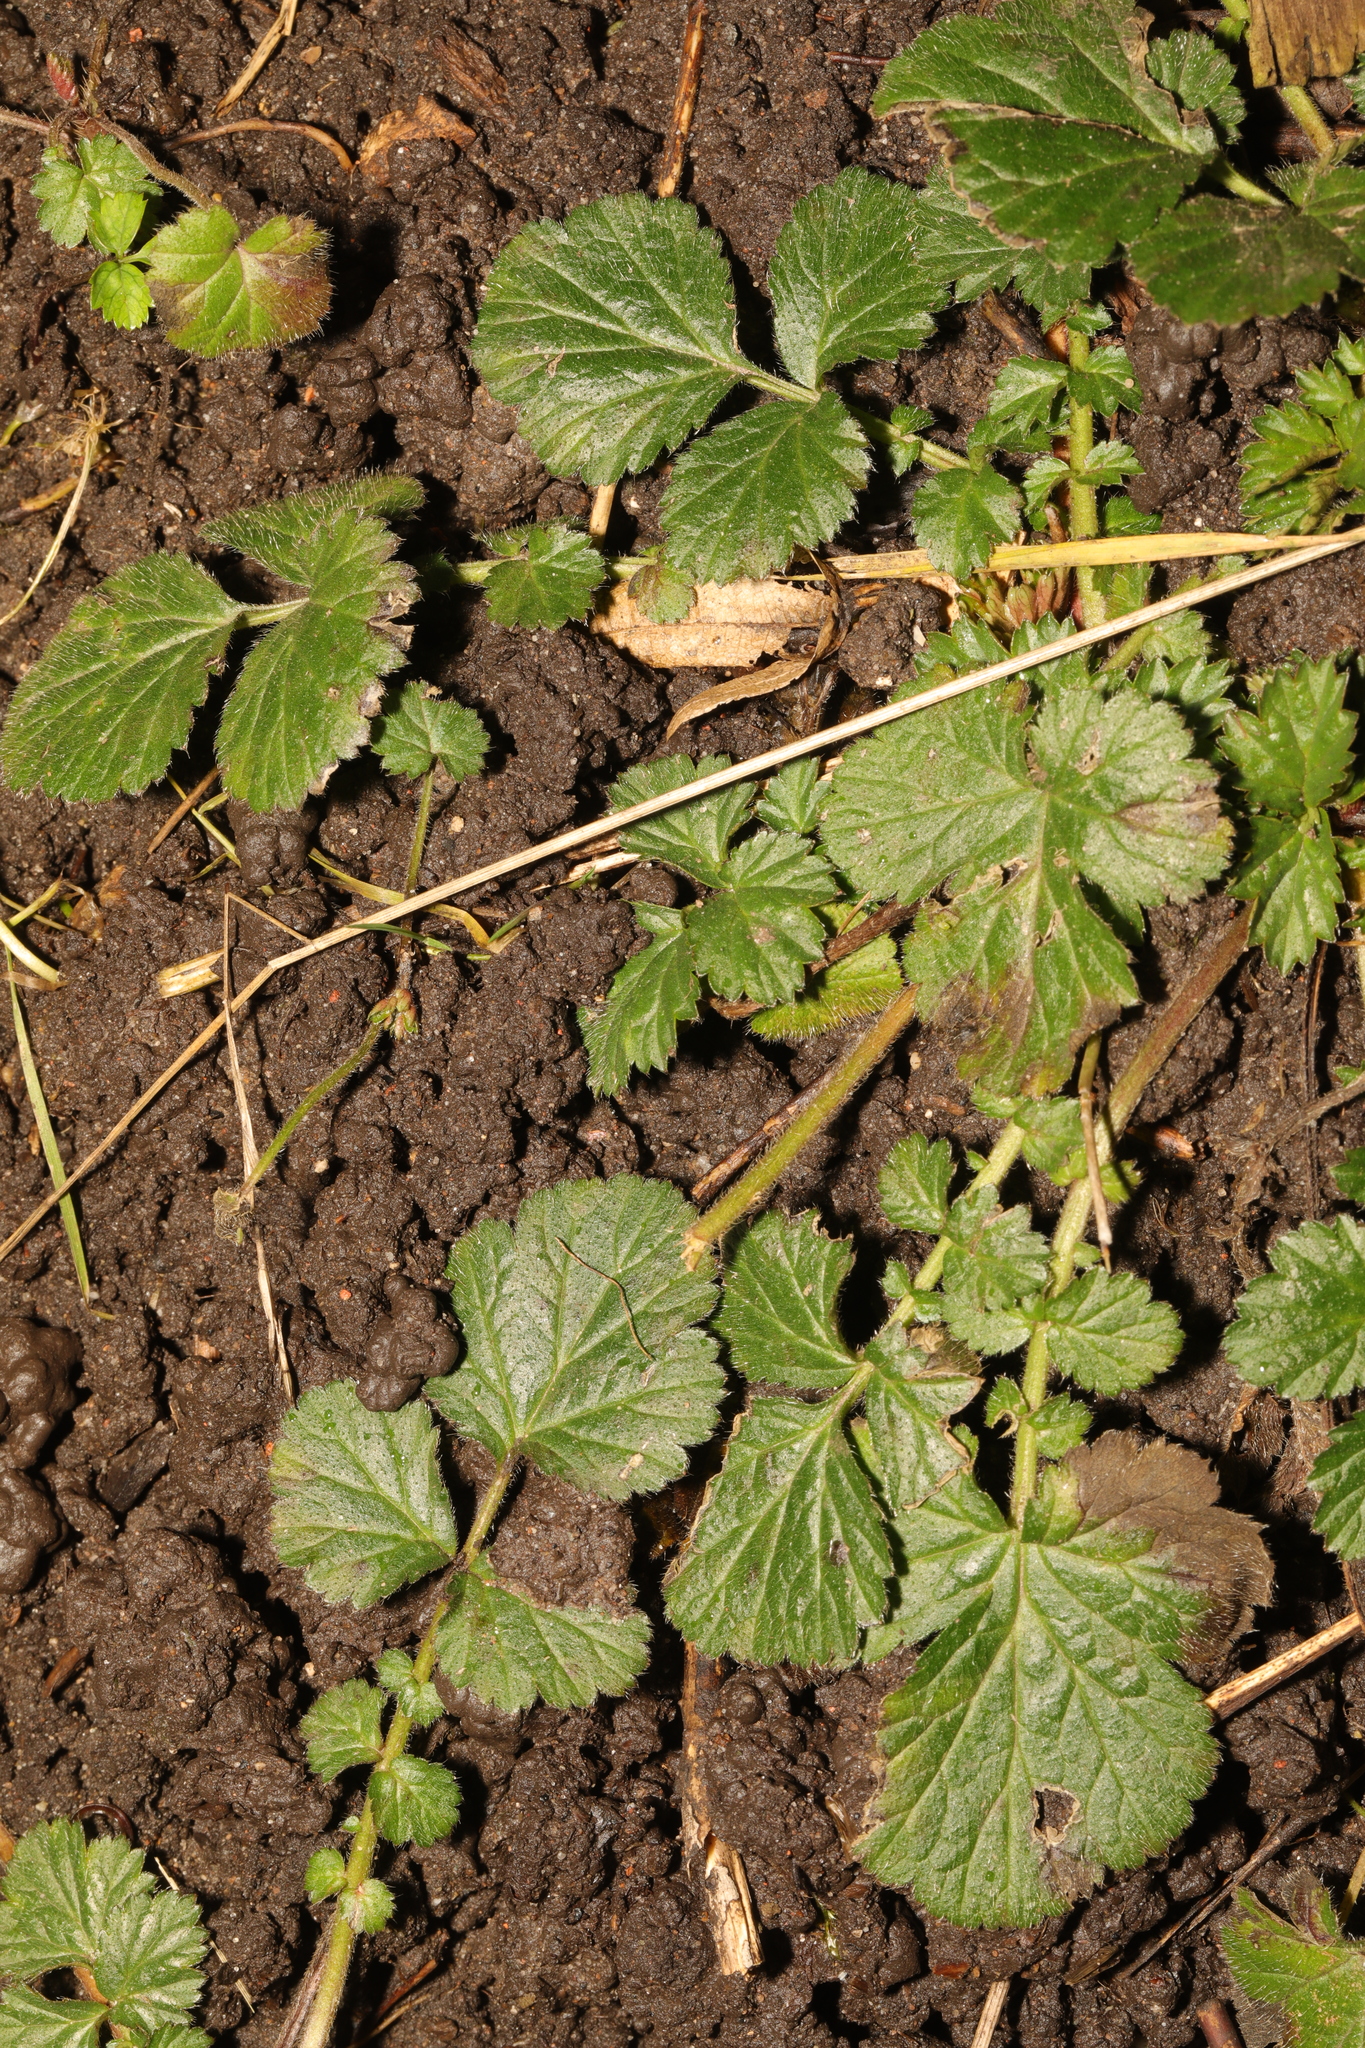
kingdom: Plantae
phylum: Tracheophyta
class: Magnoliopsida
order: Rosales
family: Rosaceae
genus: Geum
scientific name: Geum urbanum
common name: Wood avens
